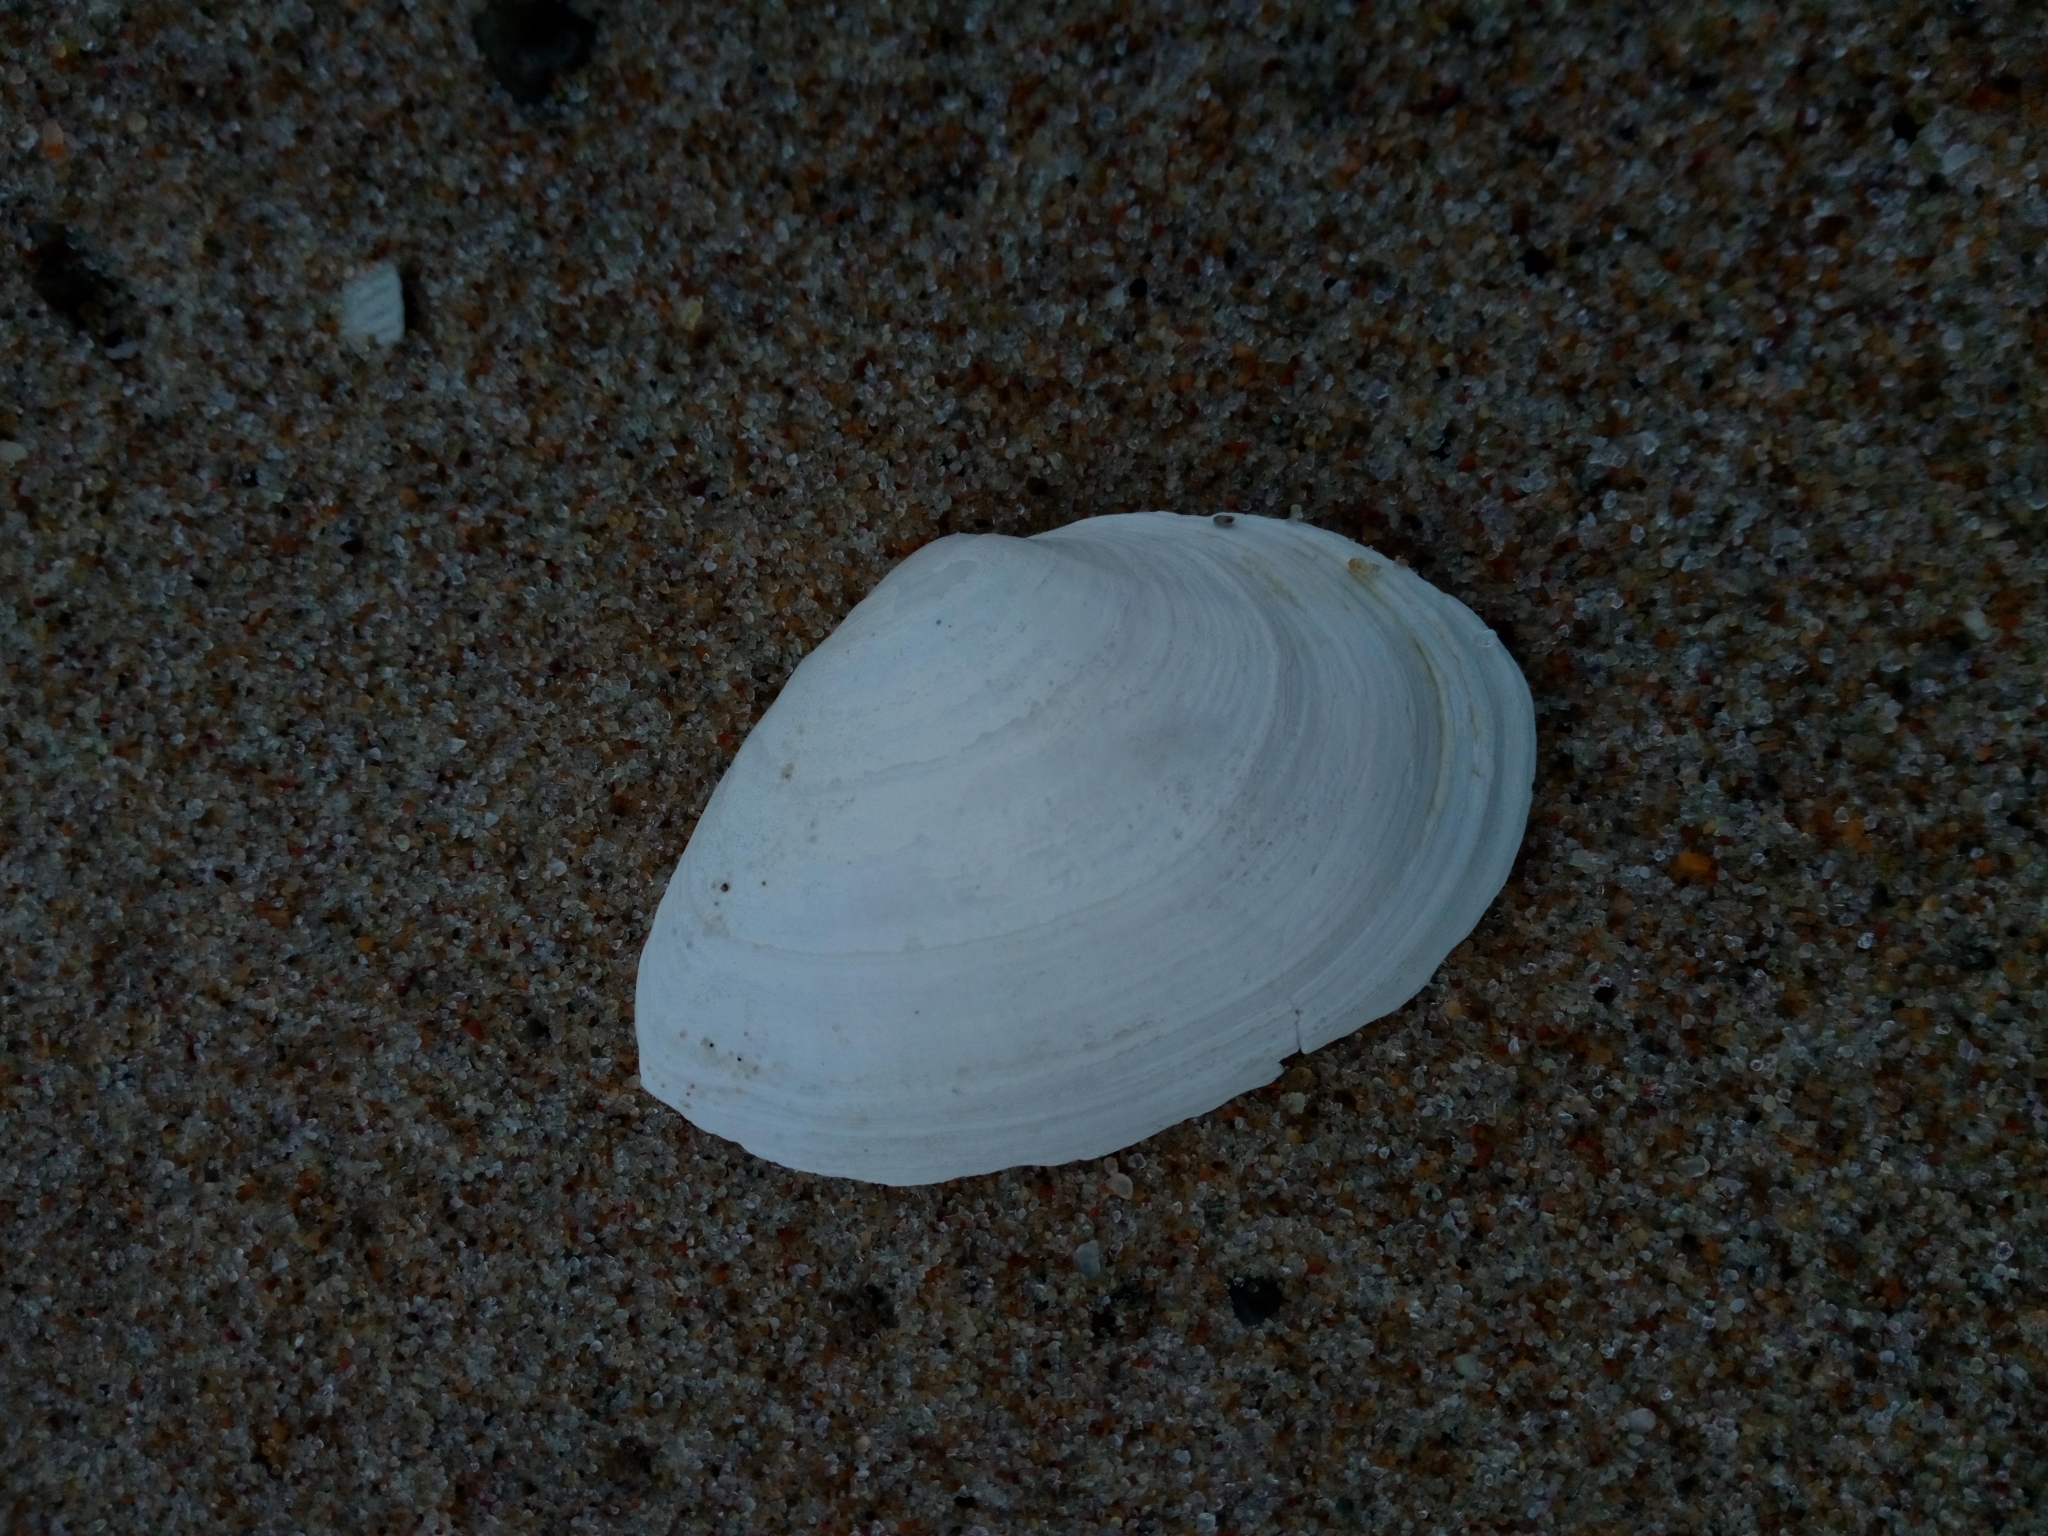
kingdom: Animalia
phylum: Mollusca
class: Bivalvia
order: Myida
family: Myidae
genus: Mya
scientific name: Mya arenaria
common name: Soft-shelled clam
